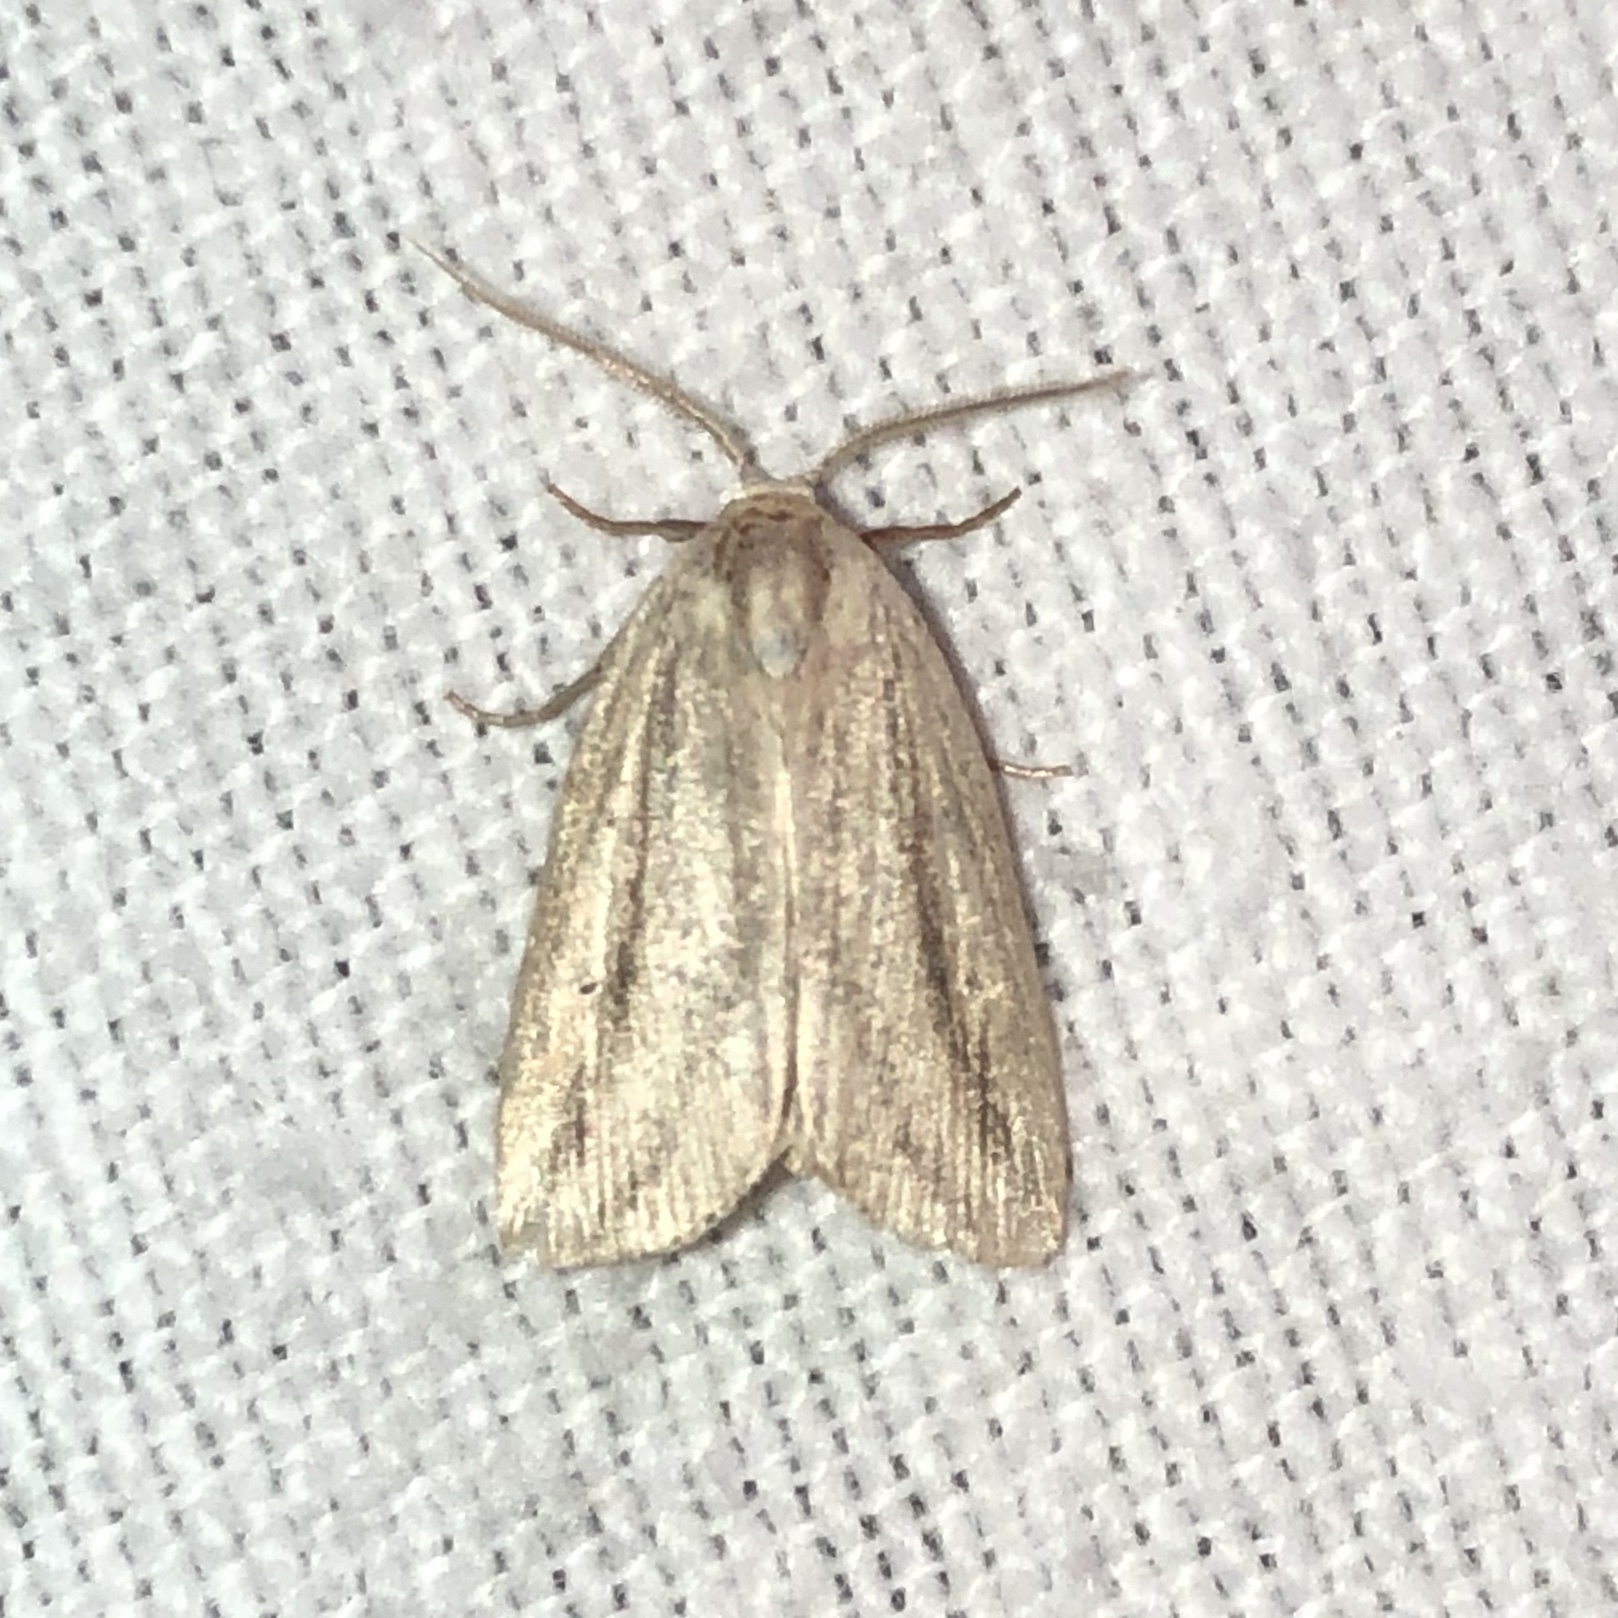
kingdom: Animalia
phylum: Arthropoda
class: Insecta
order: Lepidoptera
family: Noctuidae
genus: Amolita
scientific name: Amolita fessa
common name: Feeble grass moth
